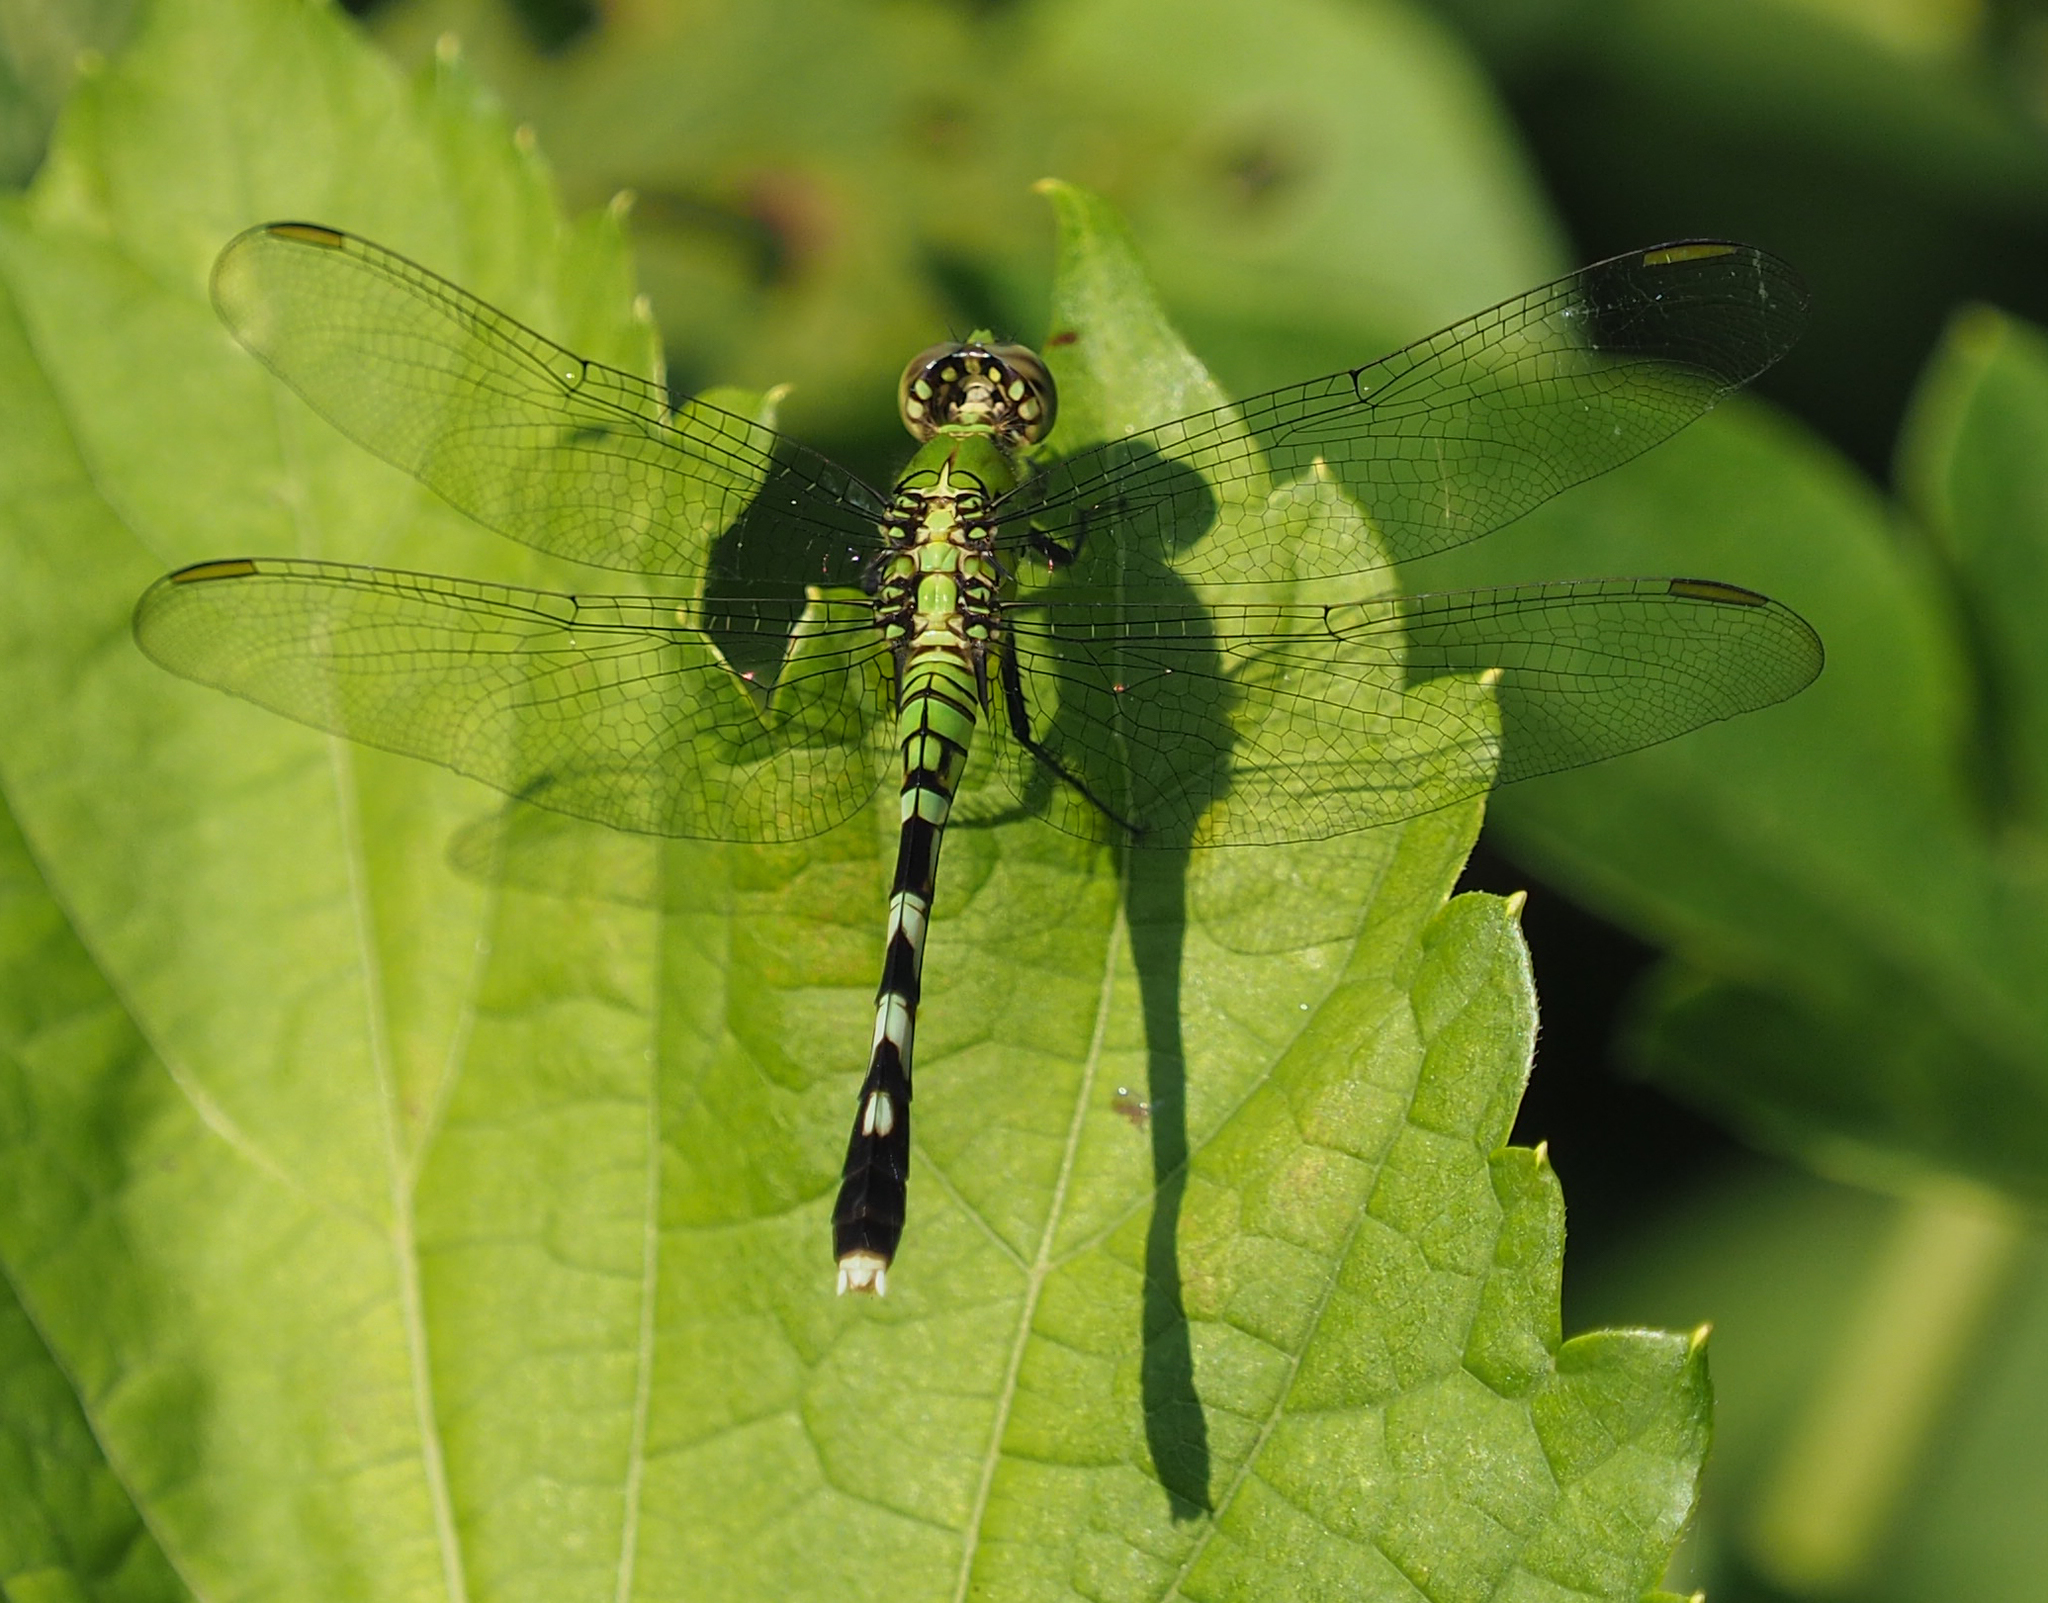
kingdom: Animalia
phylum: Arthropoda
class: Insecta
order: Odonata
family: Libellulidae
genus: Erythemis
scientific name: Erythemis simplicicollis
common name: Eastern pondhawk
